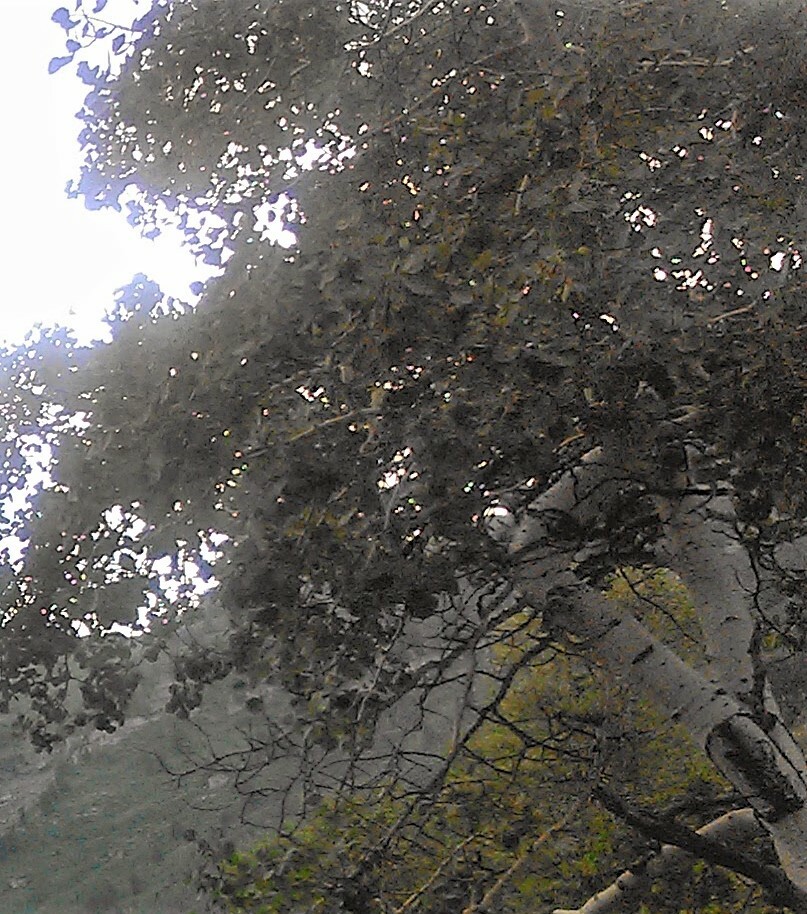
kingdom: Plantae
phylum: Tracheophyta
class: Magnoliopsida
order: Malpighiales
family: Salicaceae
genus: Populus
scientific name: Populus tremuloides
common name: Quaking aspen
